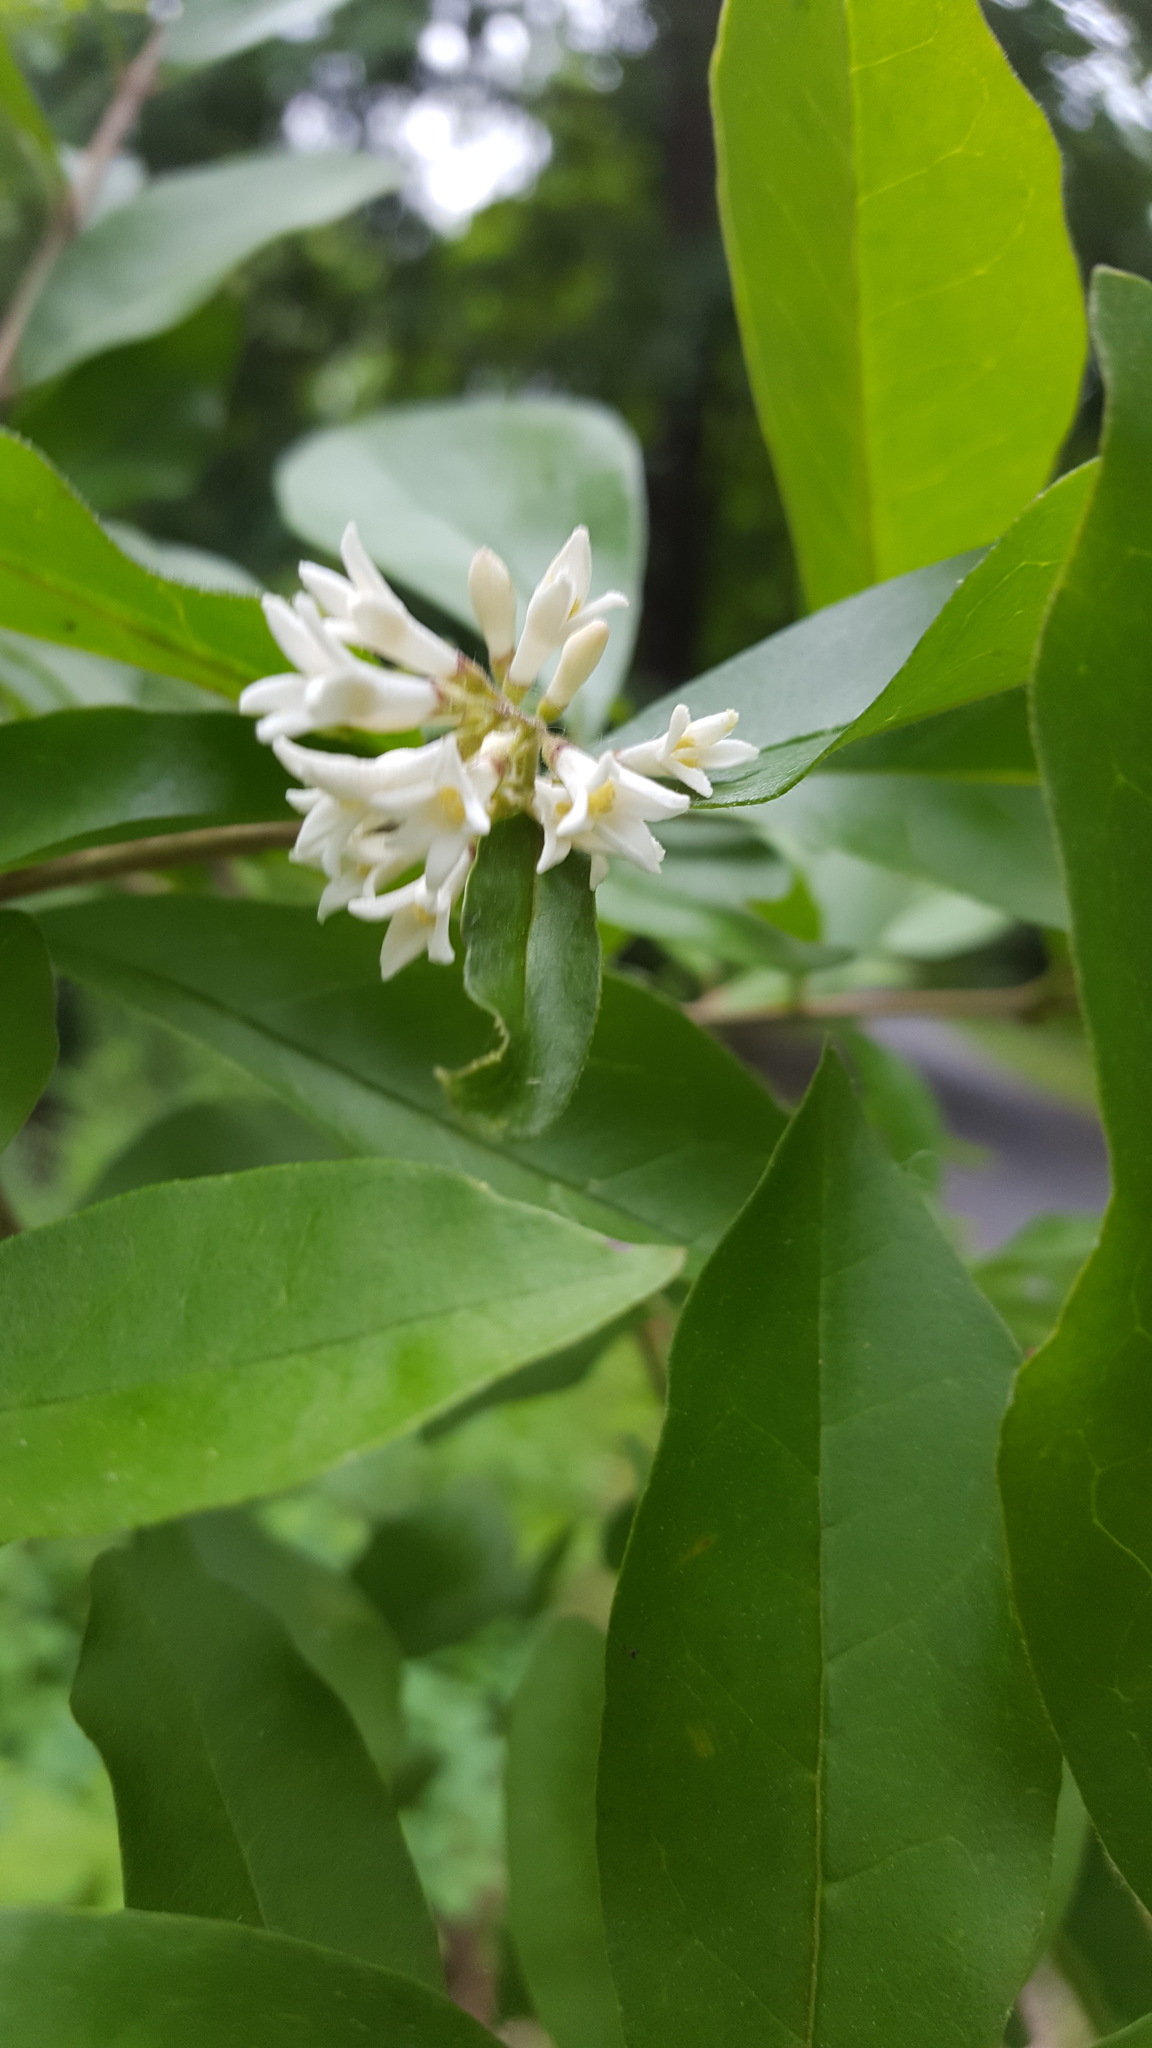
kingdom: Plantae
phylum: Tracheophyta
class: Magnoliopsida
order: Lamiales
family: Oleaceae
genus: Ligustrum
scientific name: Ligustrum obtusifolium
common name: Border privet
